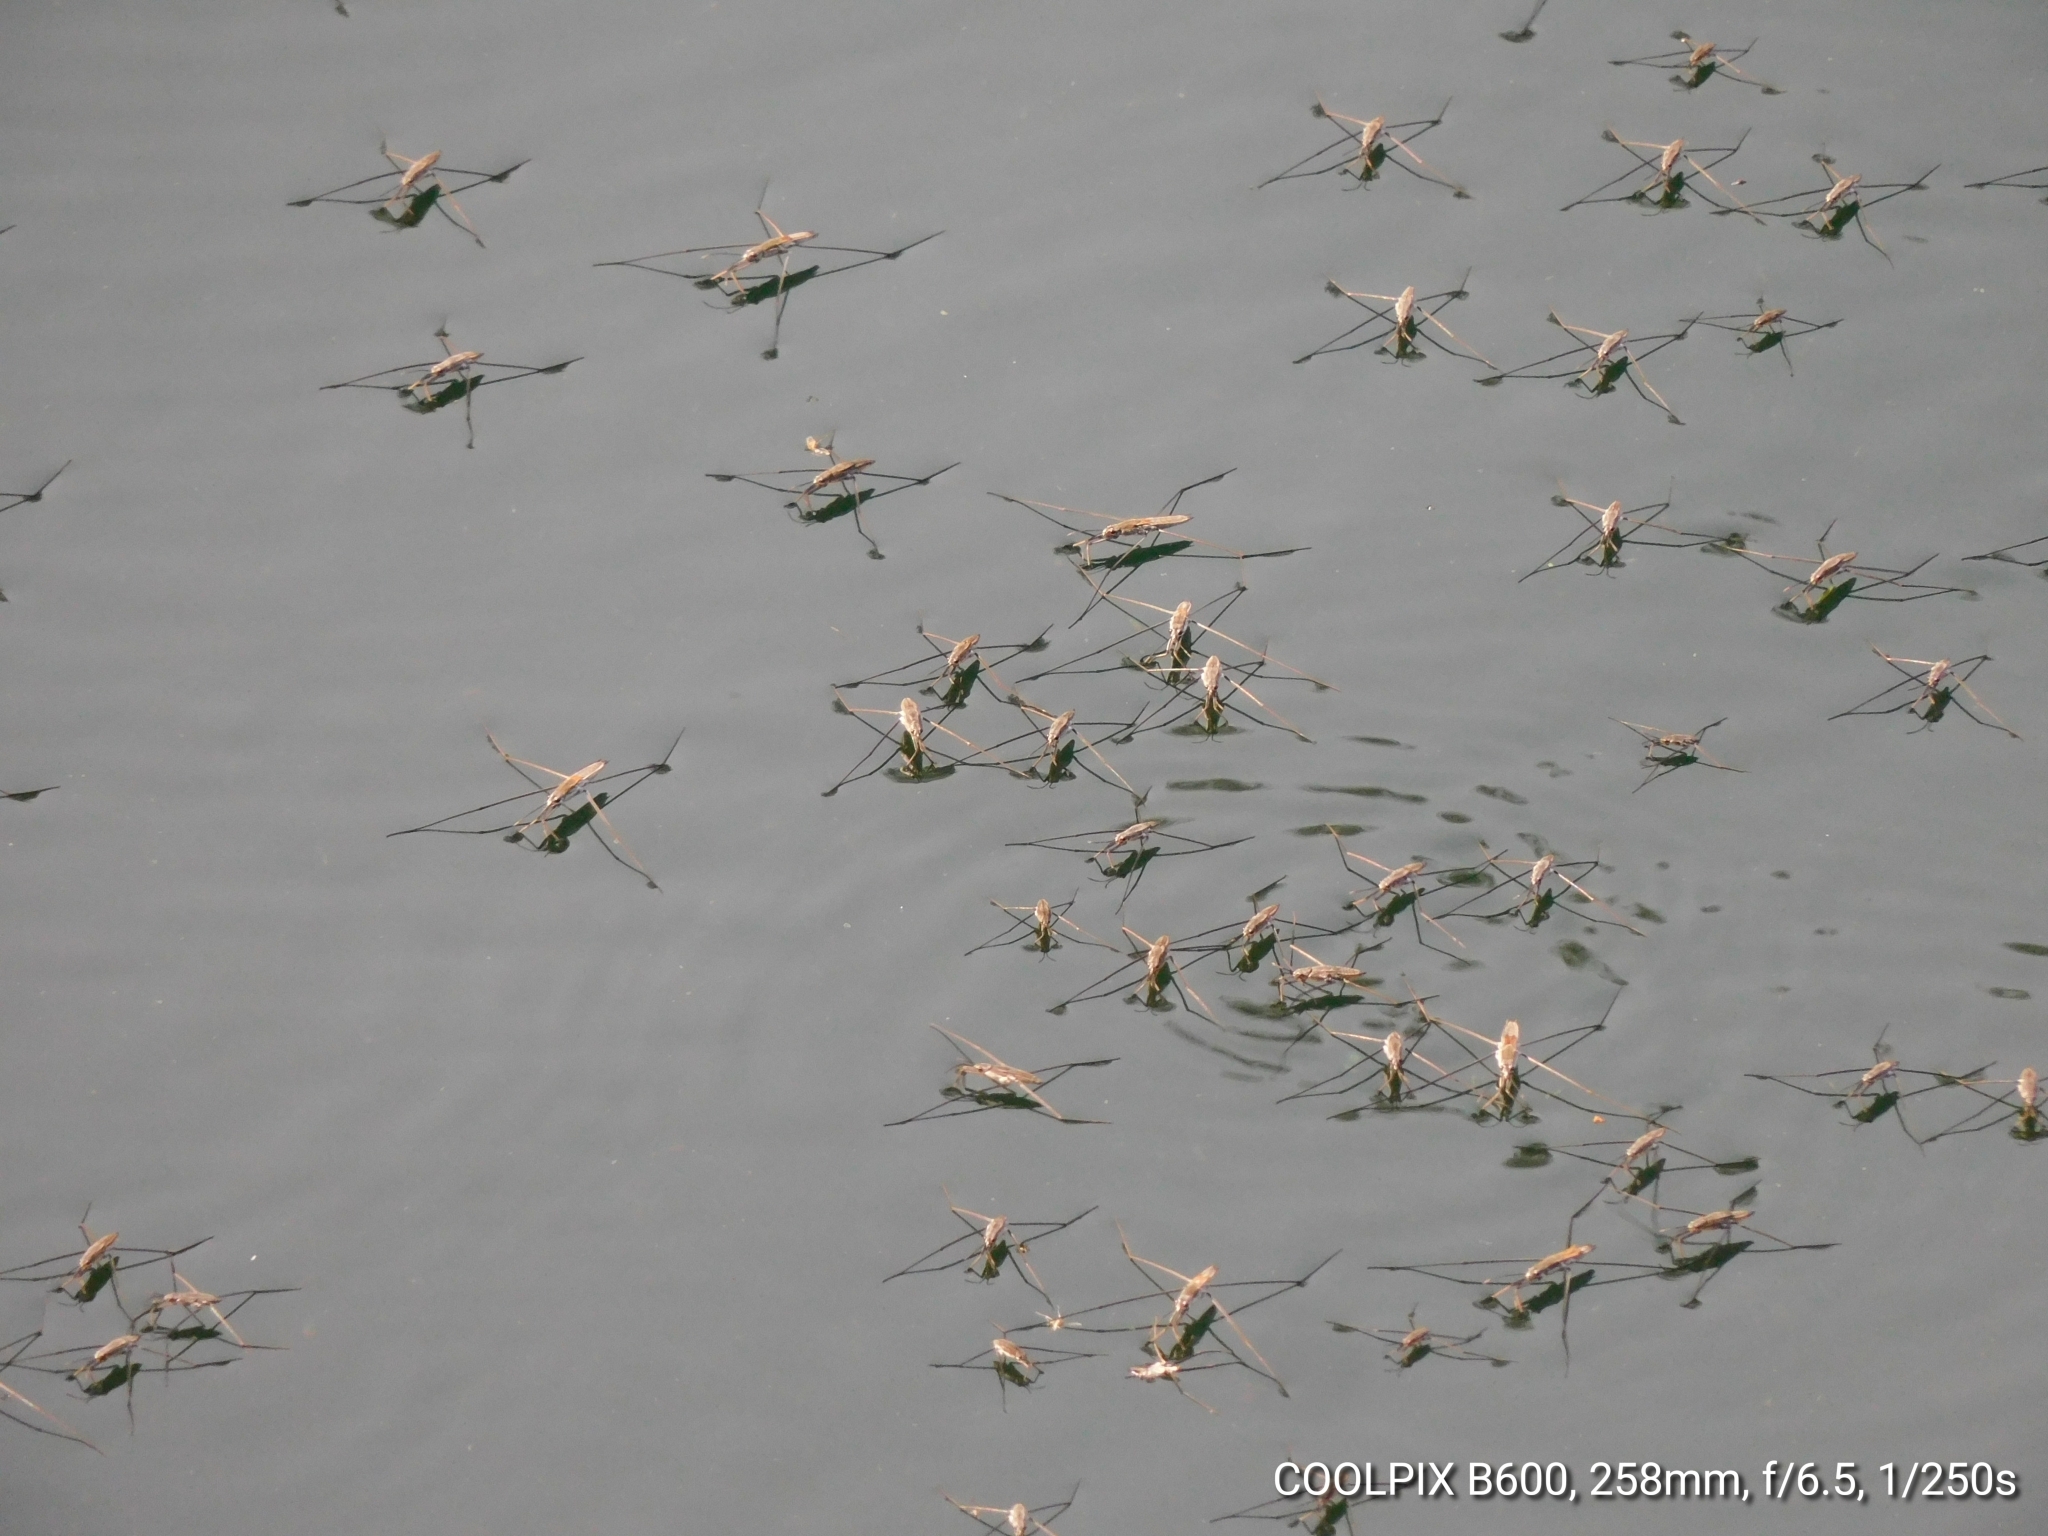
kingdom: Animalia
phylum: Arthropoda
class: Insecta
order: Hemiptera
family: Gerridae
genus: Aquarius
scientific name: Aquarius adelaidis
